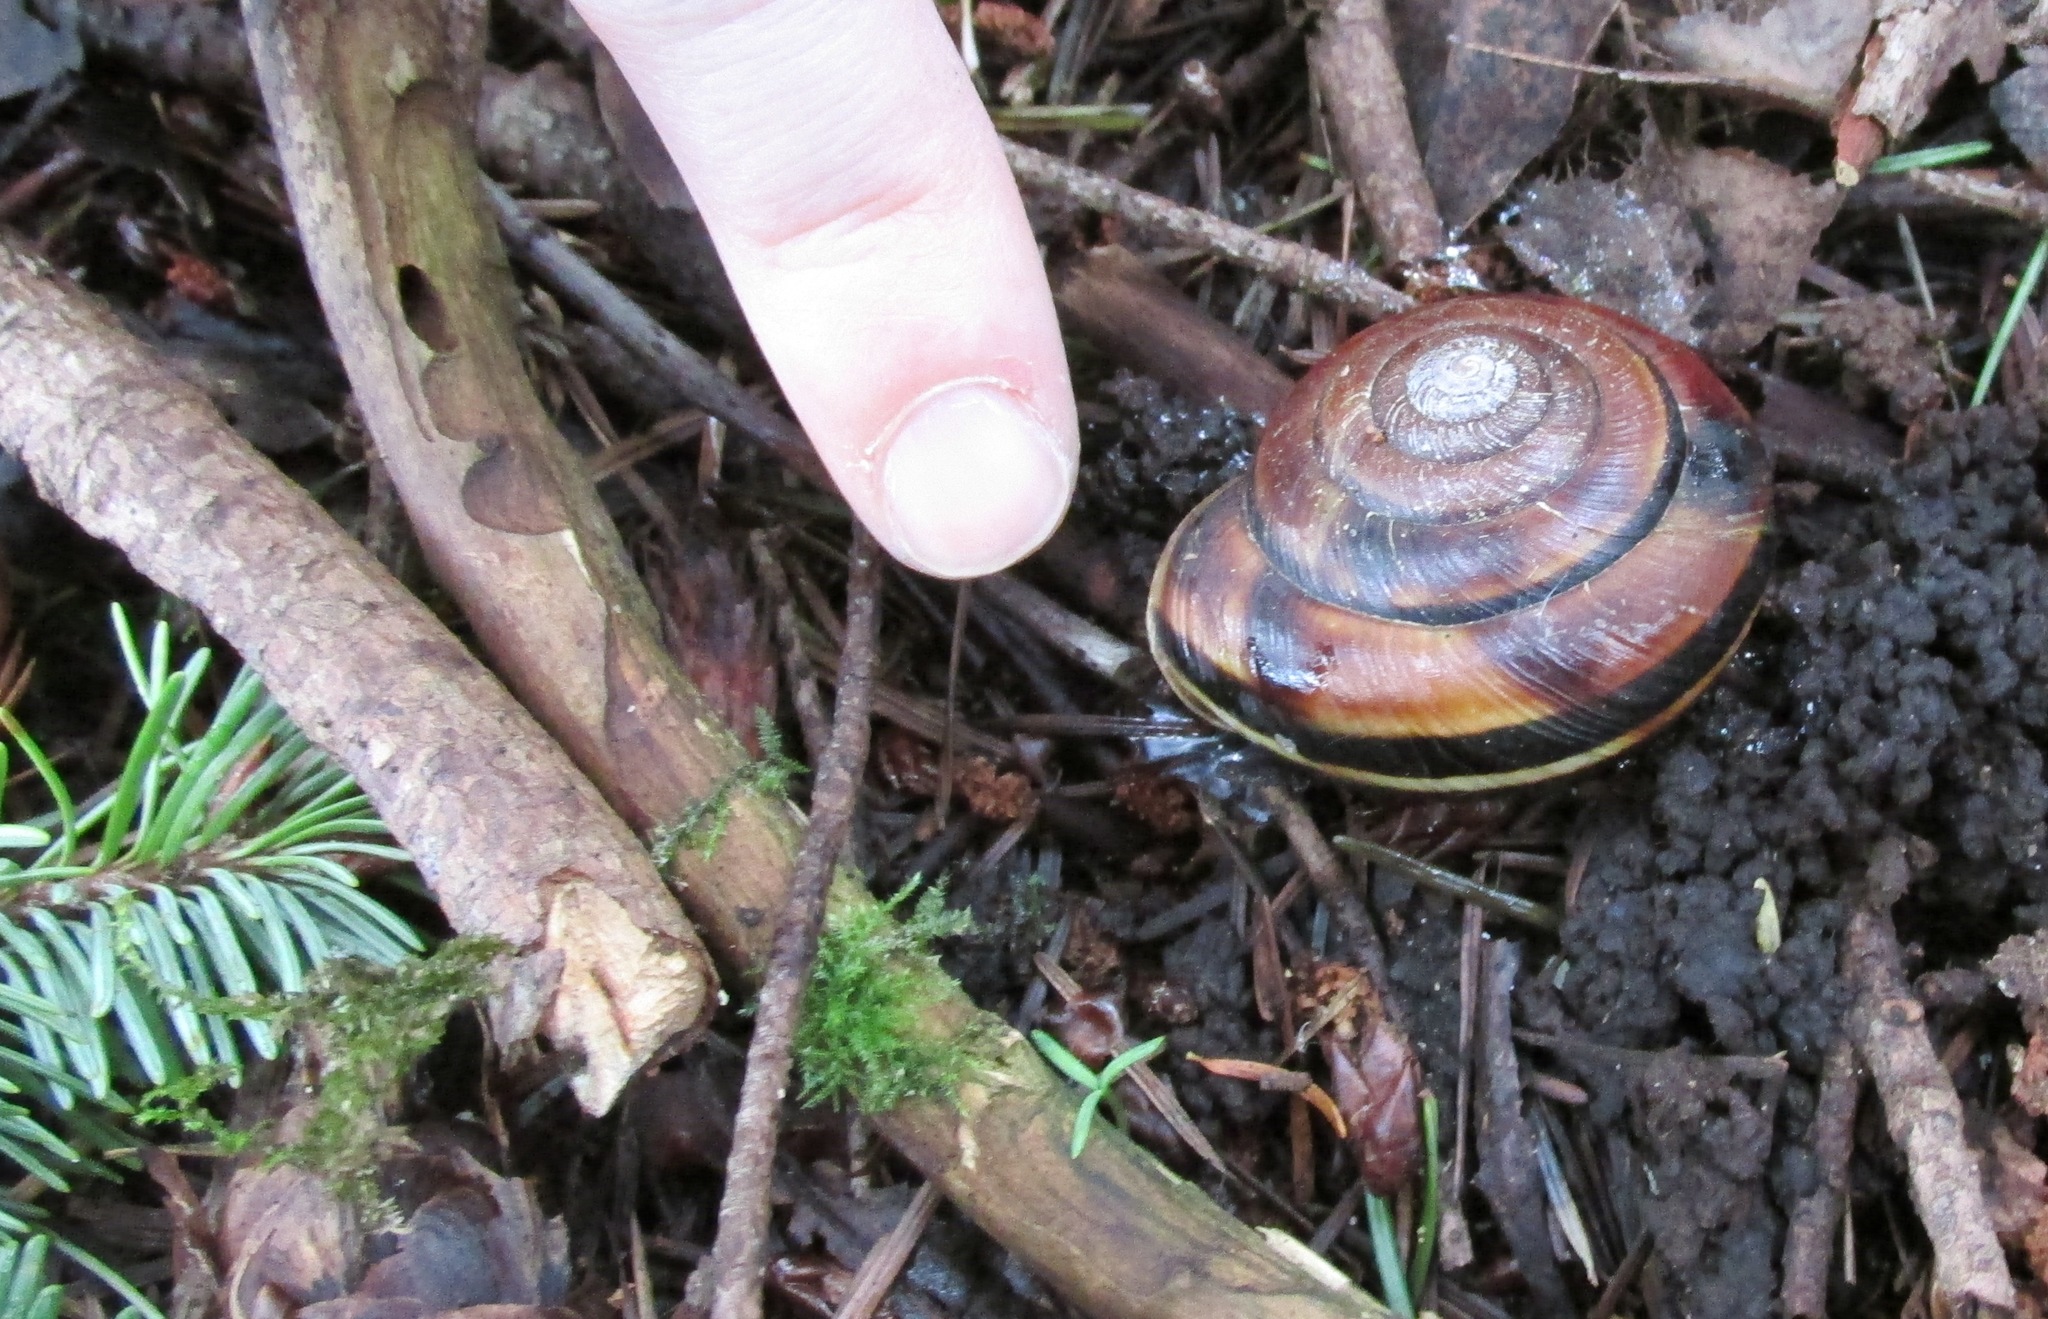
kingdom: Animalia
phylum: Mollusca
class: Gastropoda
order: Stylommatophora
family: Xanthonychidae
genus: Monadenia
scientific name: Monadenia fidelis
